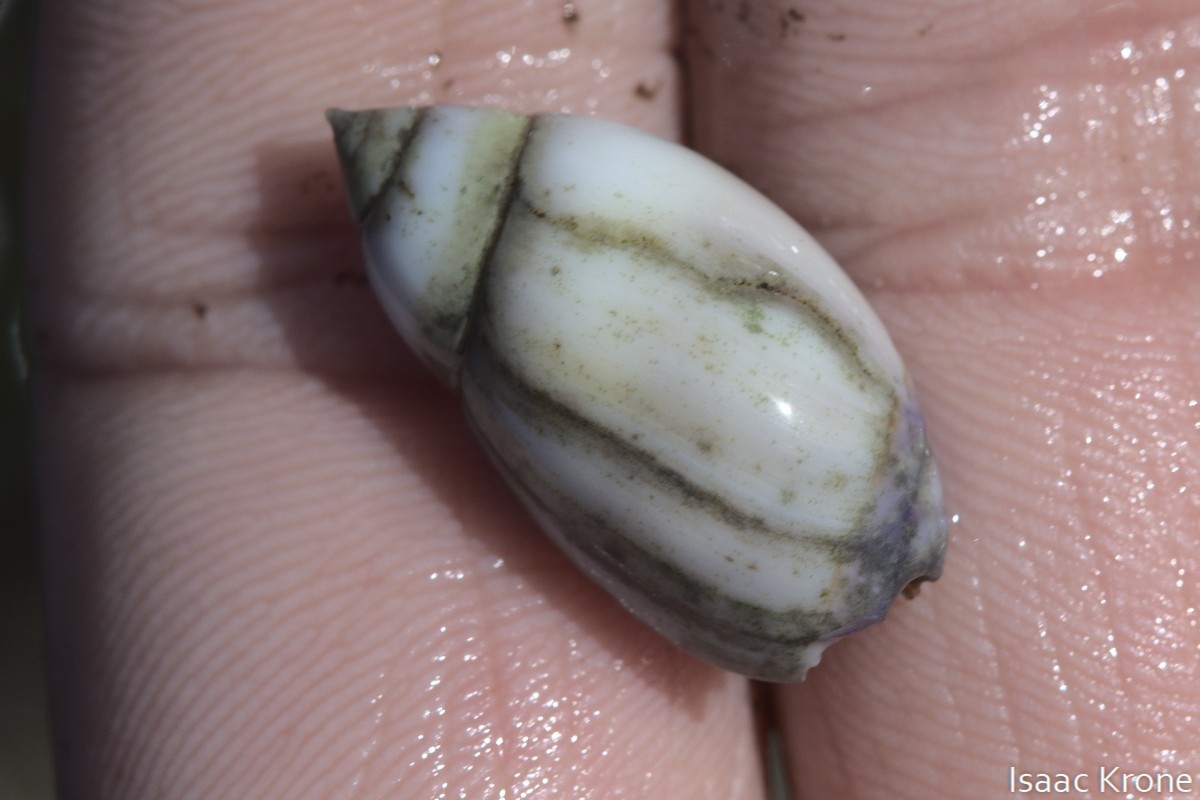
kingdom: Animalia
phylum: Mollusca
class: Gastropoda
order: Neogastropoda
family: Olividae
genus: Callianax
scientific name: Callianax biplicata
